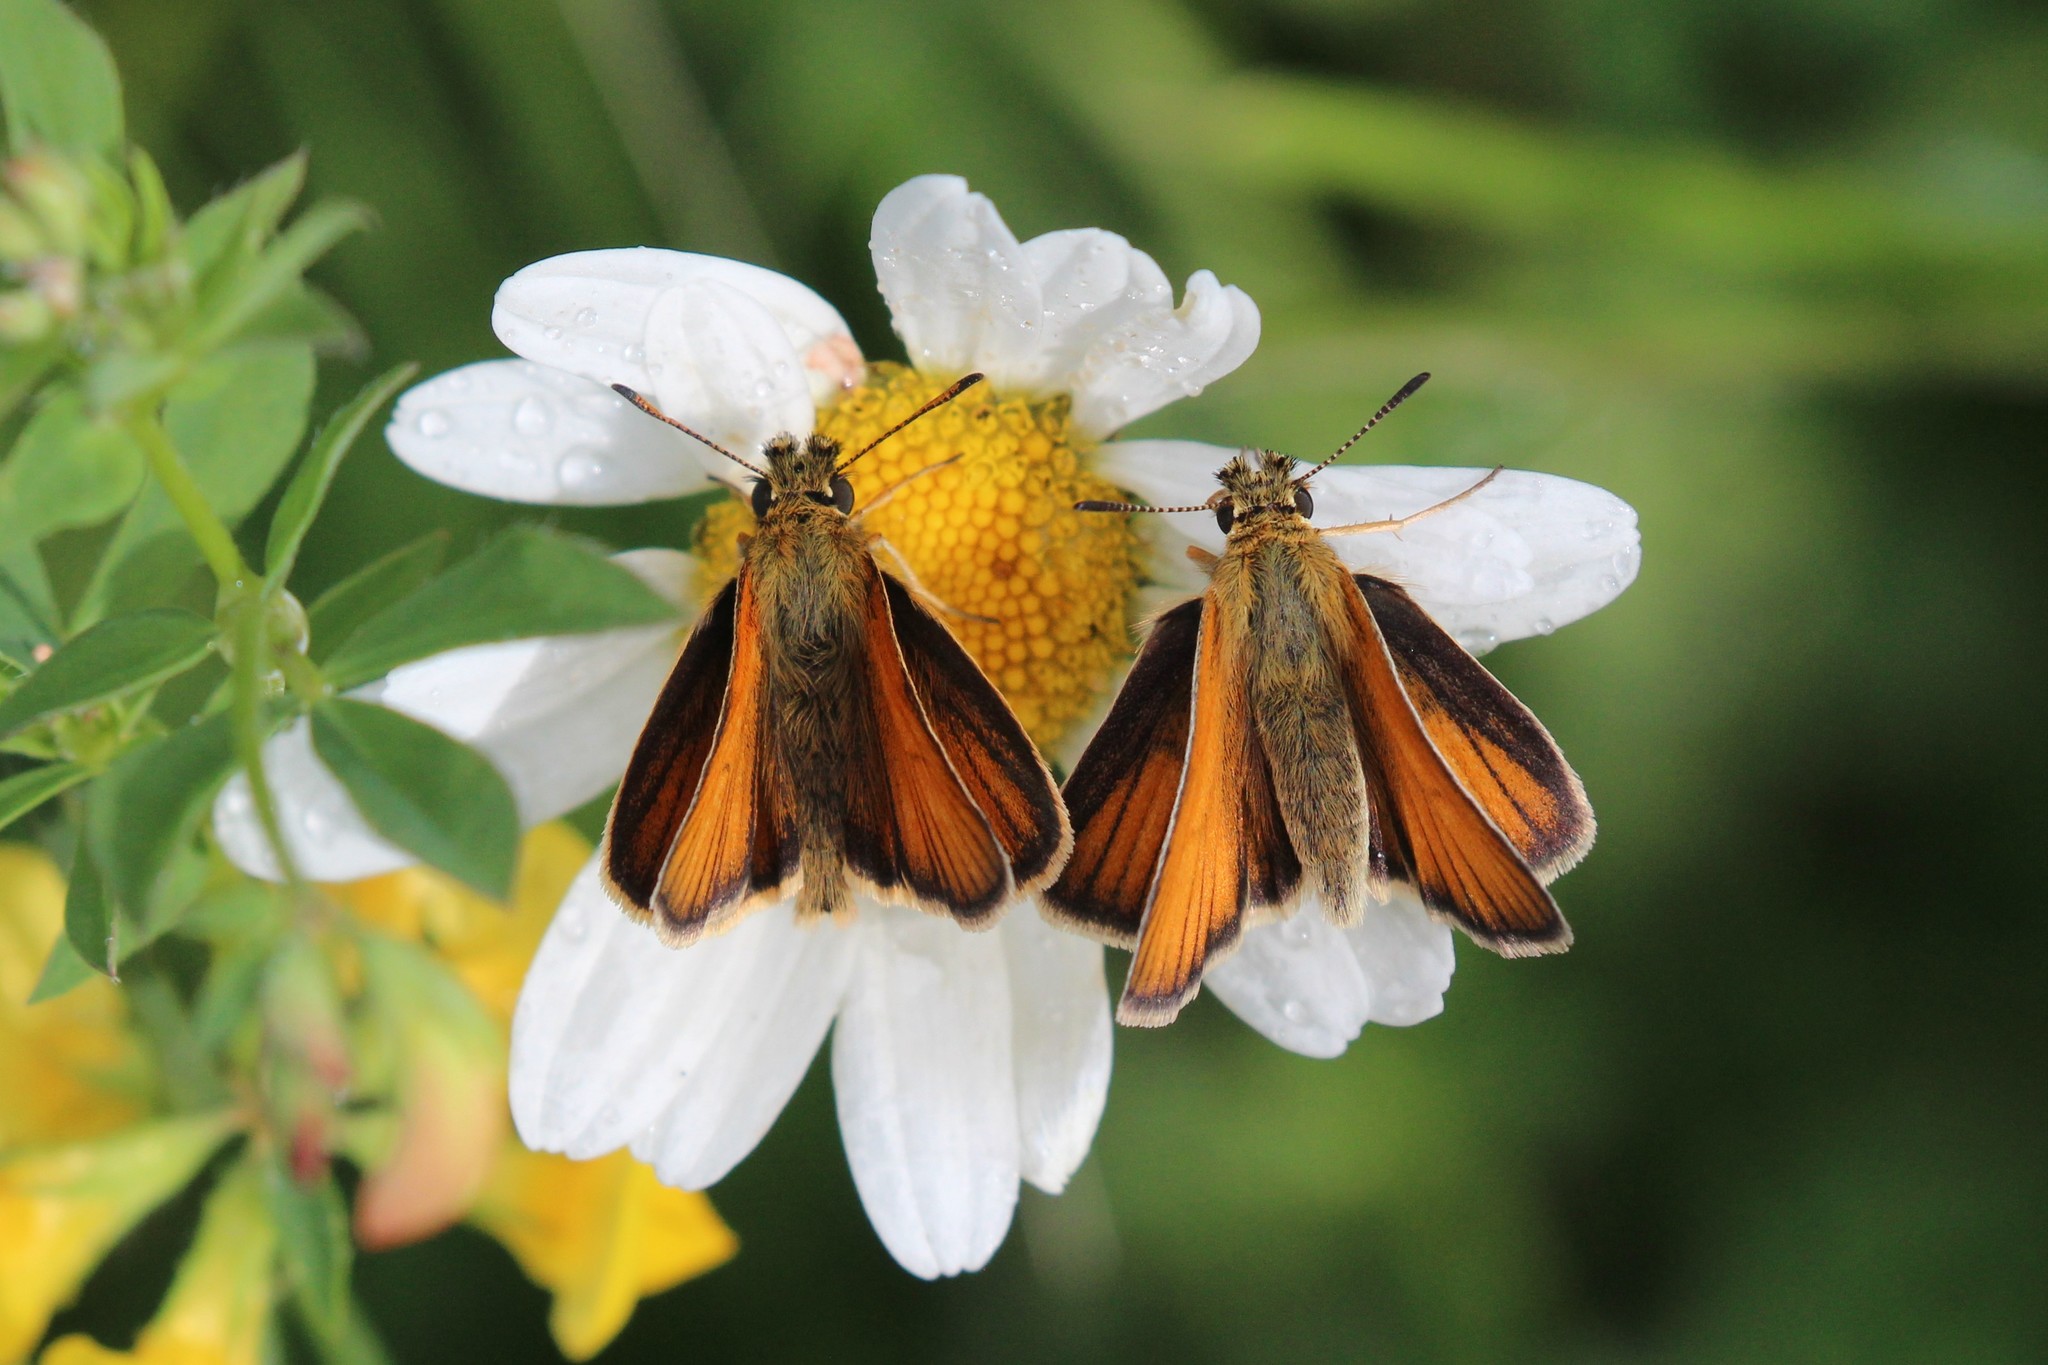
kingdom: Animalia
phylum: Arthropoda
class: Insecta
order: Lepidoptera
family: Hesperiidae
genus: Thymelicus
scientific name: Thymelicus lineola
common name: Essex skipper
